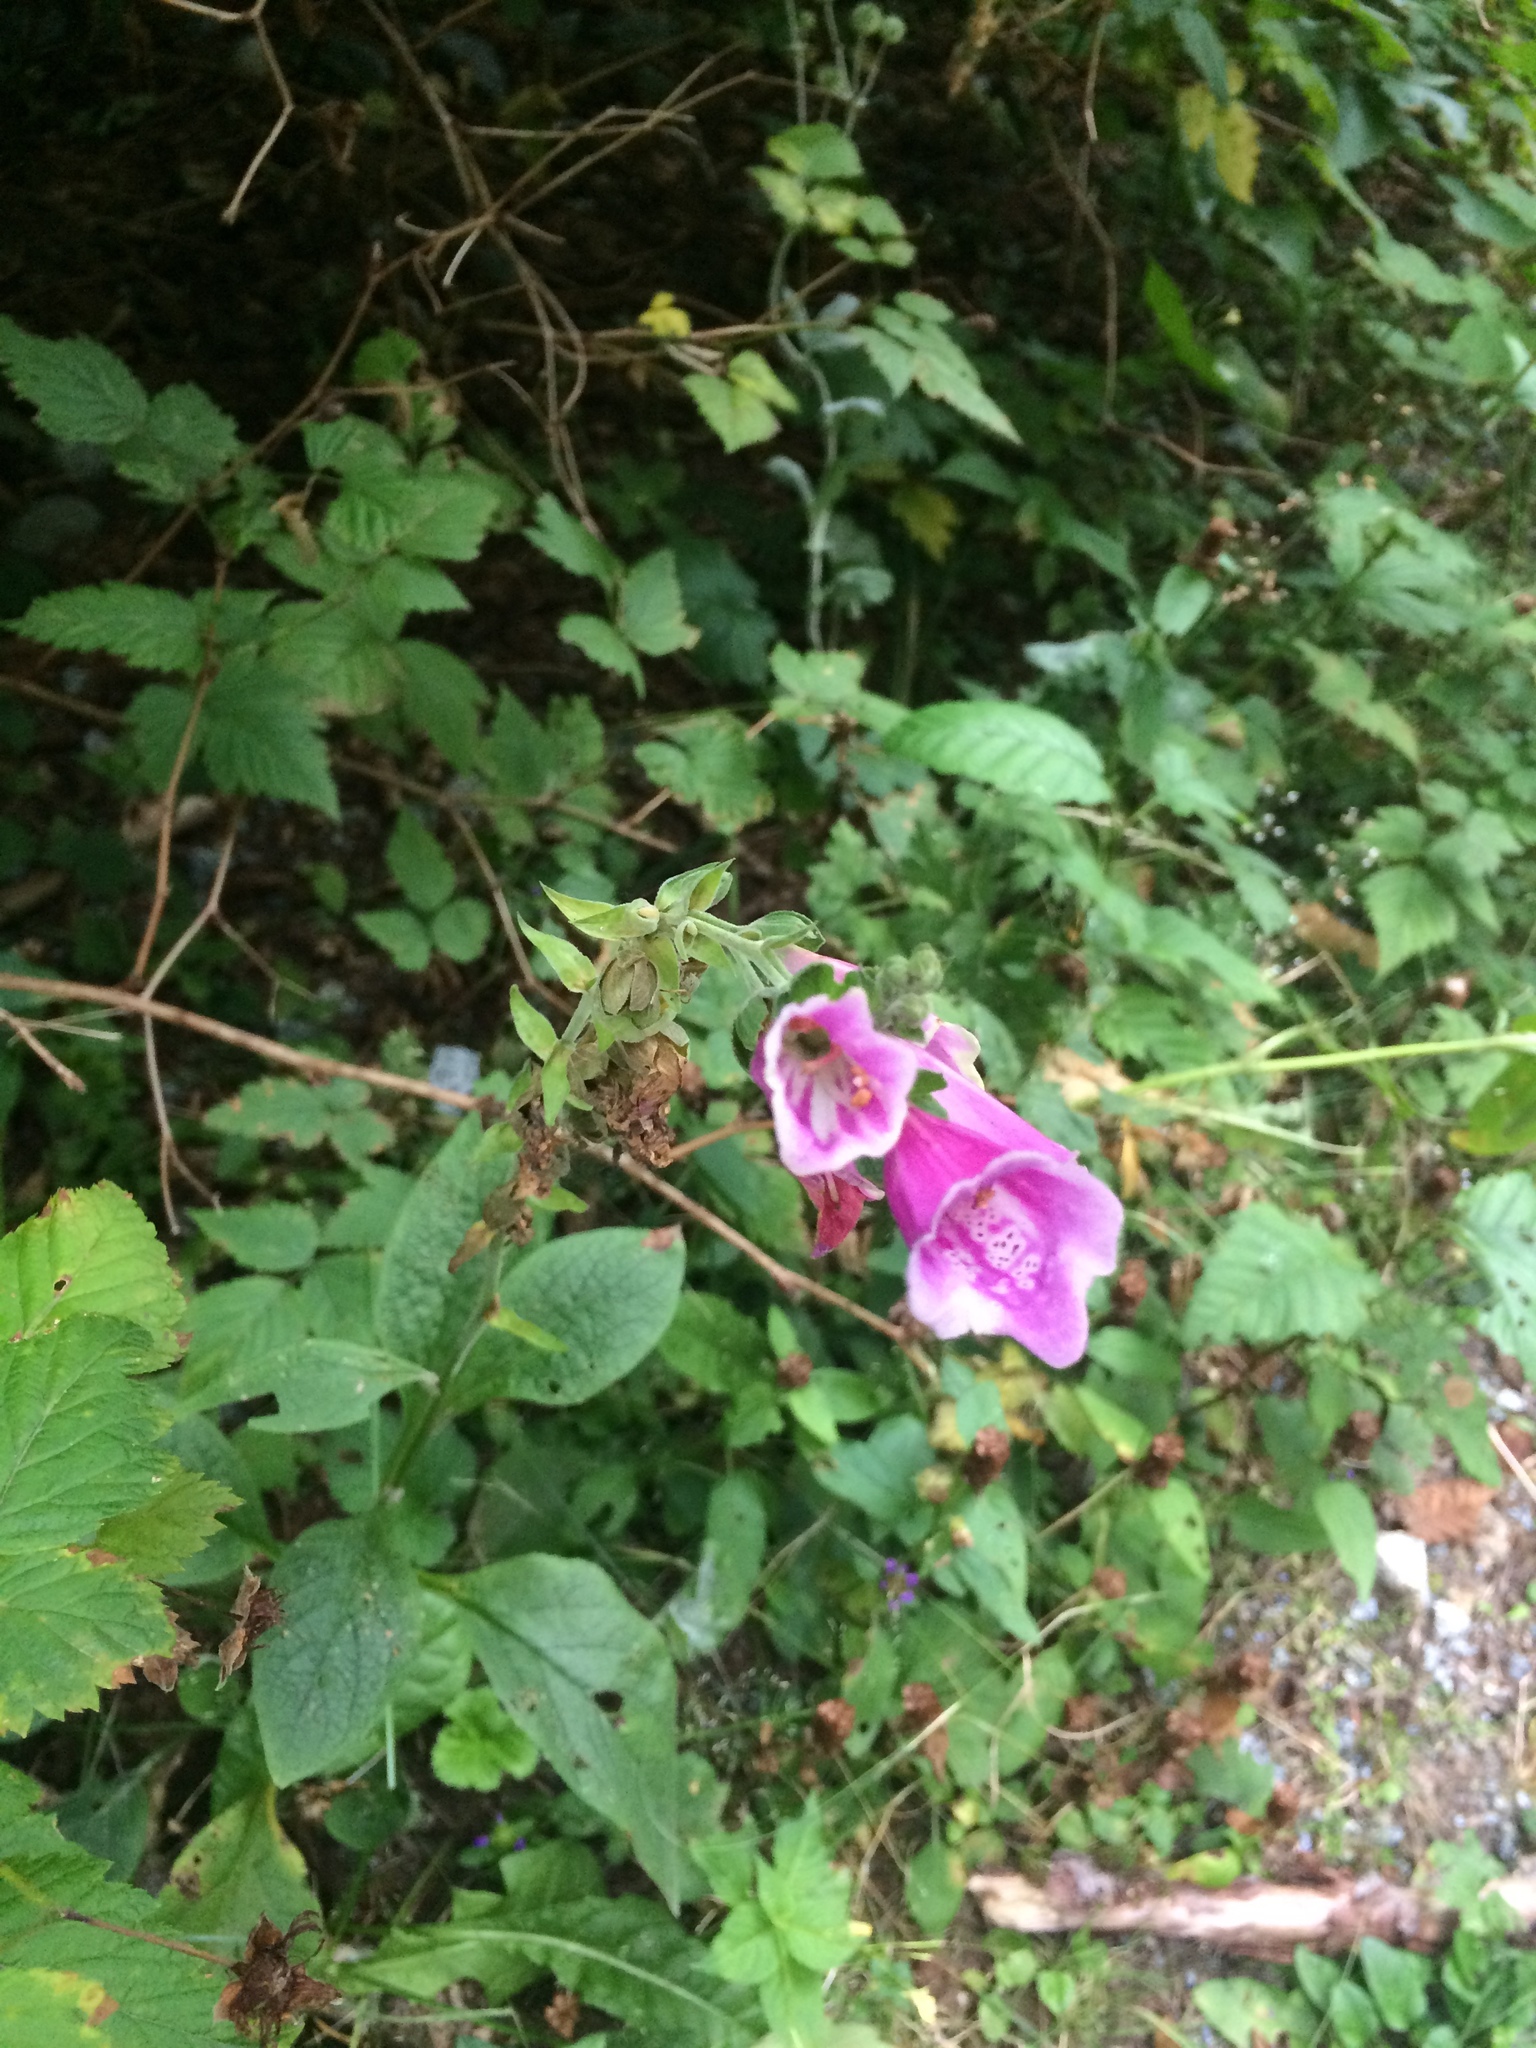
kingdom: Plantae
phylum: Tracheophyta
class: Magnoliopsida
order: Lamiales
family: Plantaginaceae
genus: Digitalis
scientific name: Digitalis purpurea
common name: Foxglove
